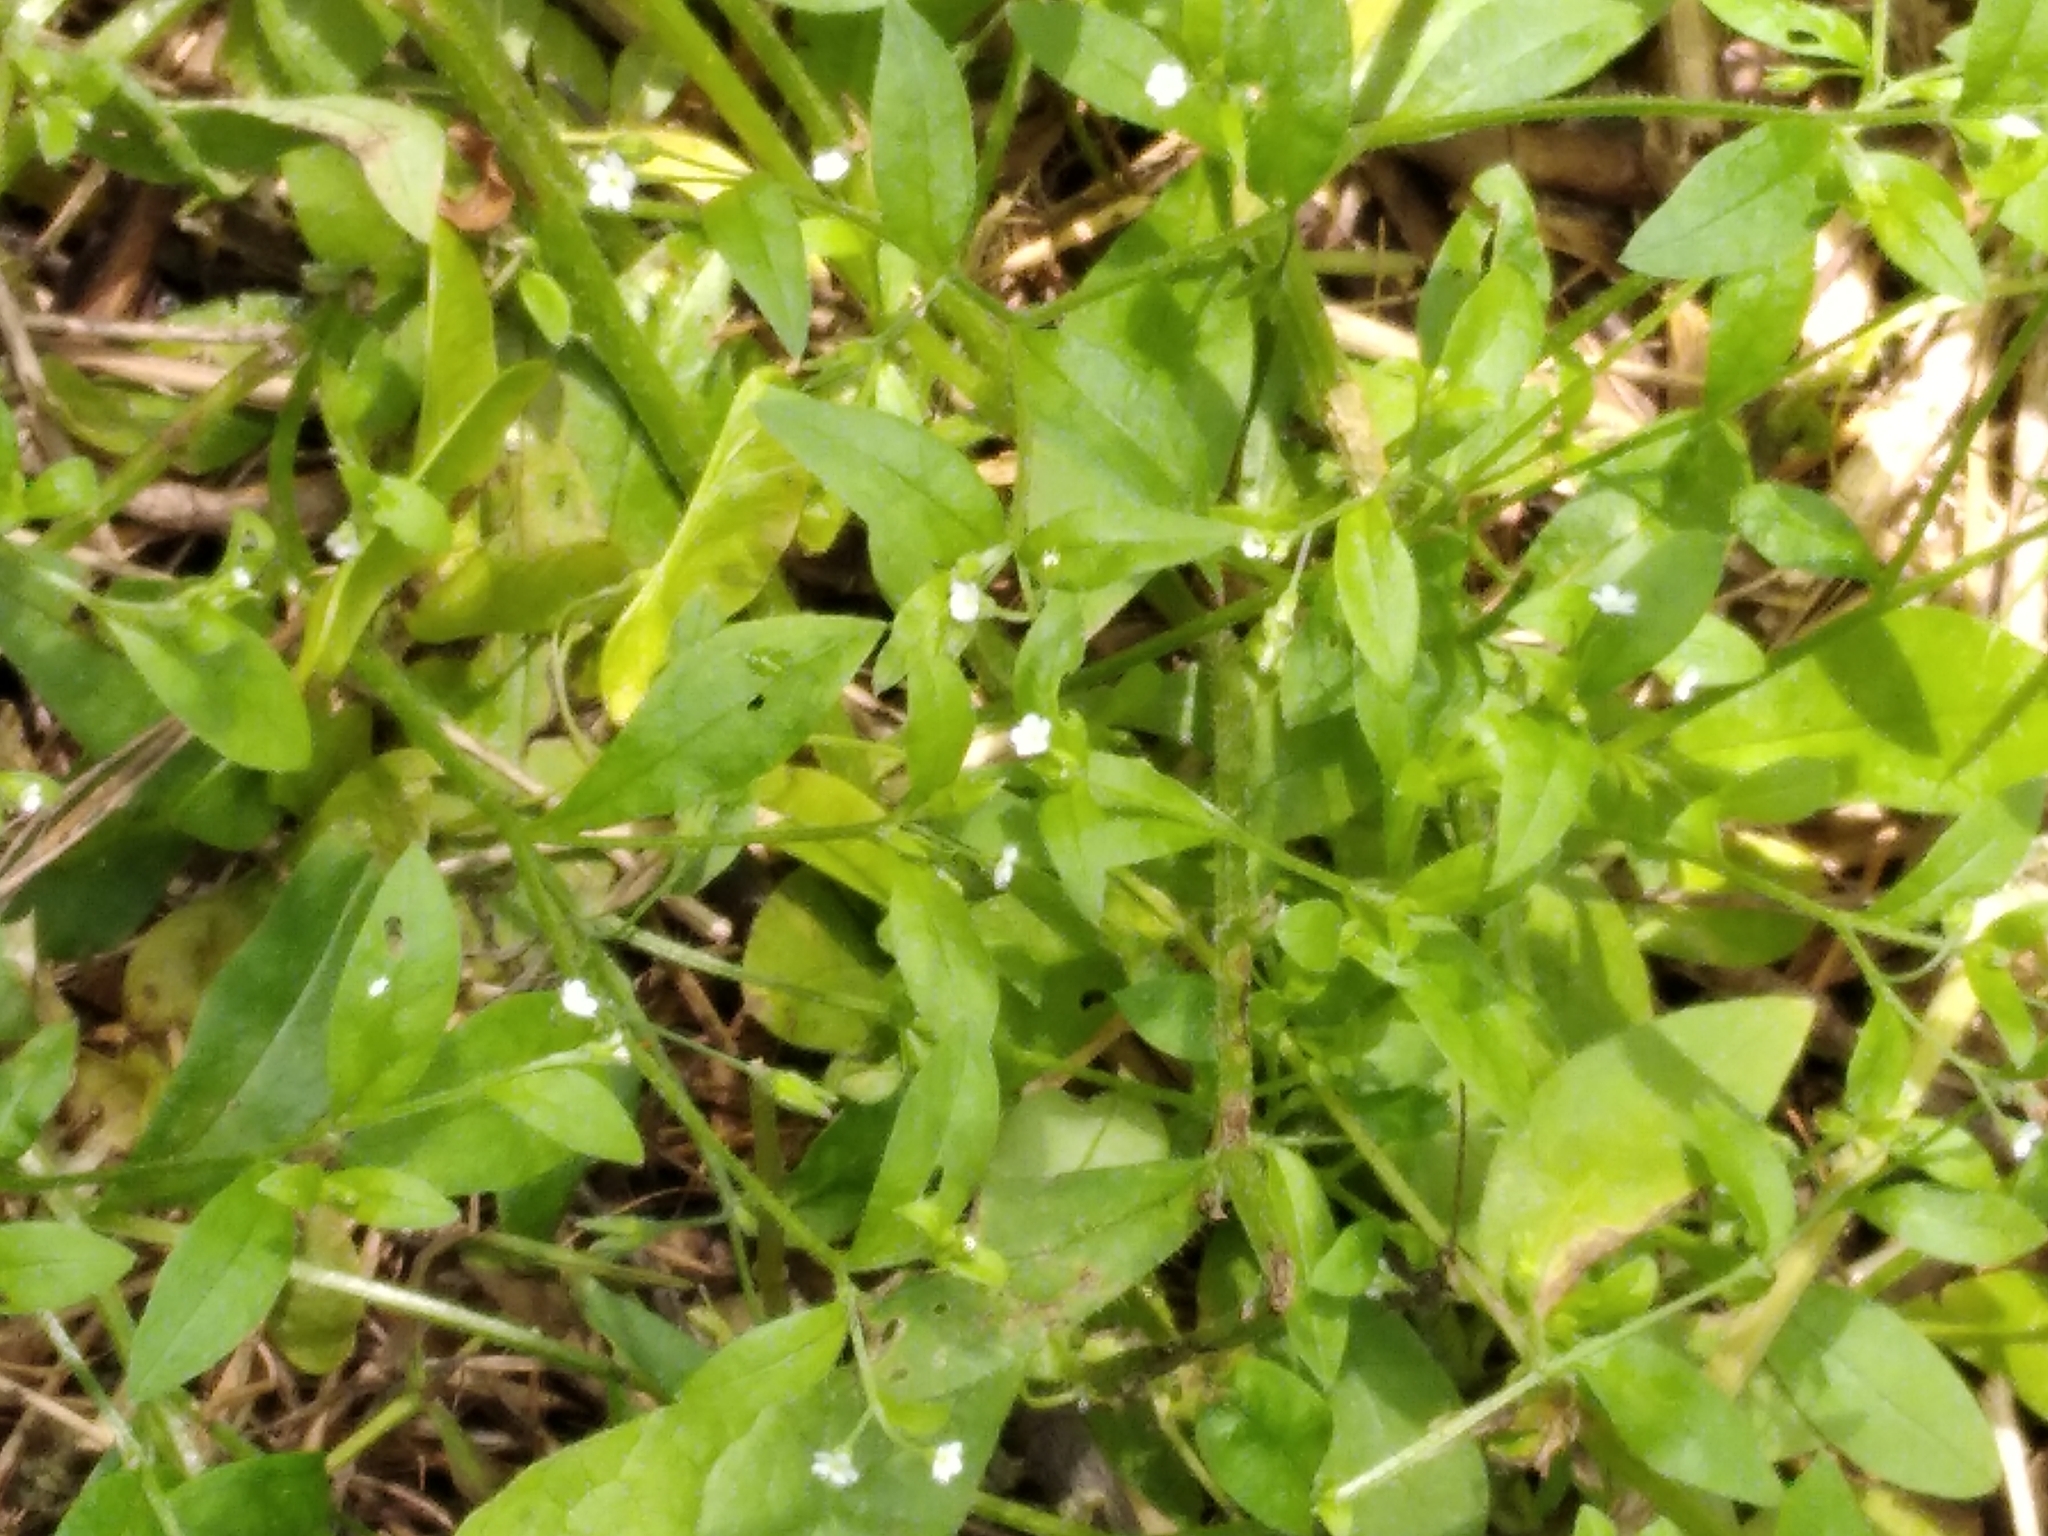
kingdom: Plantae
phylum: Tracheophyta
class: Magnoliopsida
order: Boraginales
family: Boraginaceae
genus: Myosotis
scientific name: Myosotis sparsiflora
